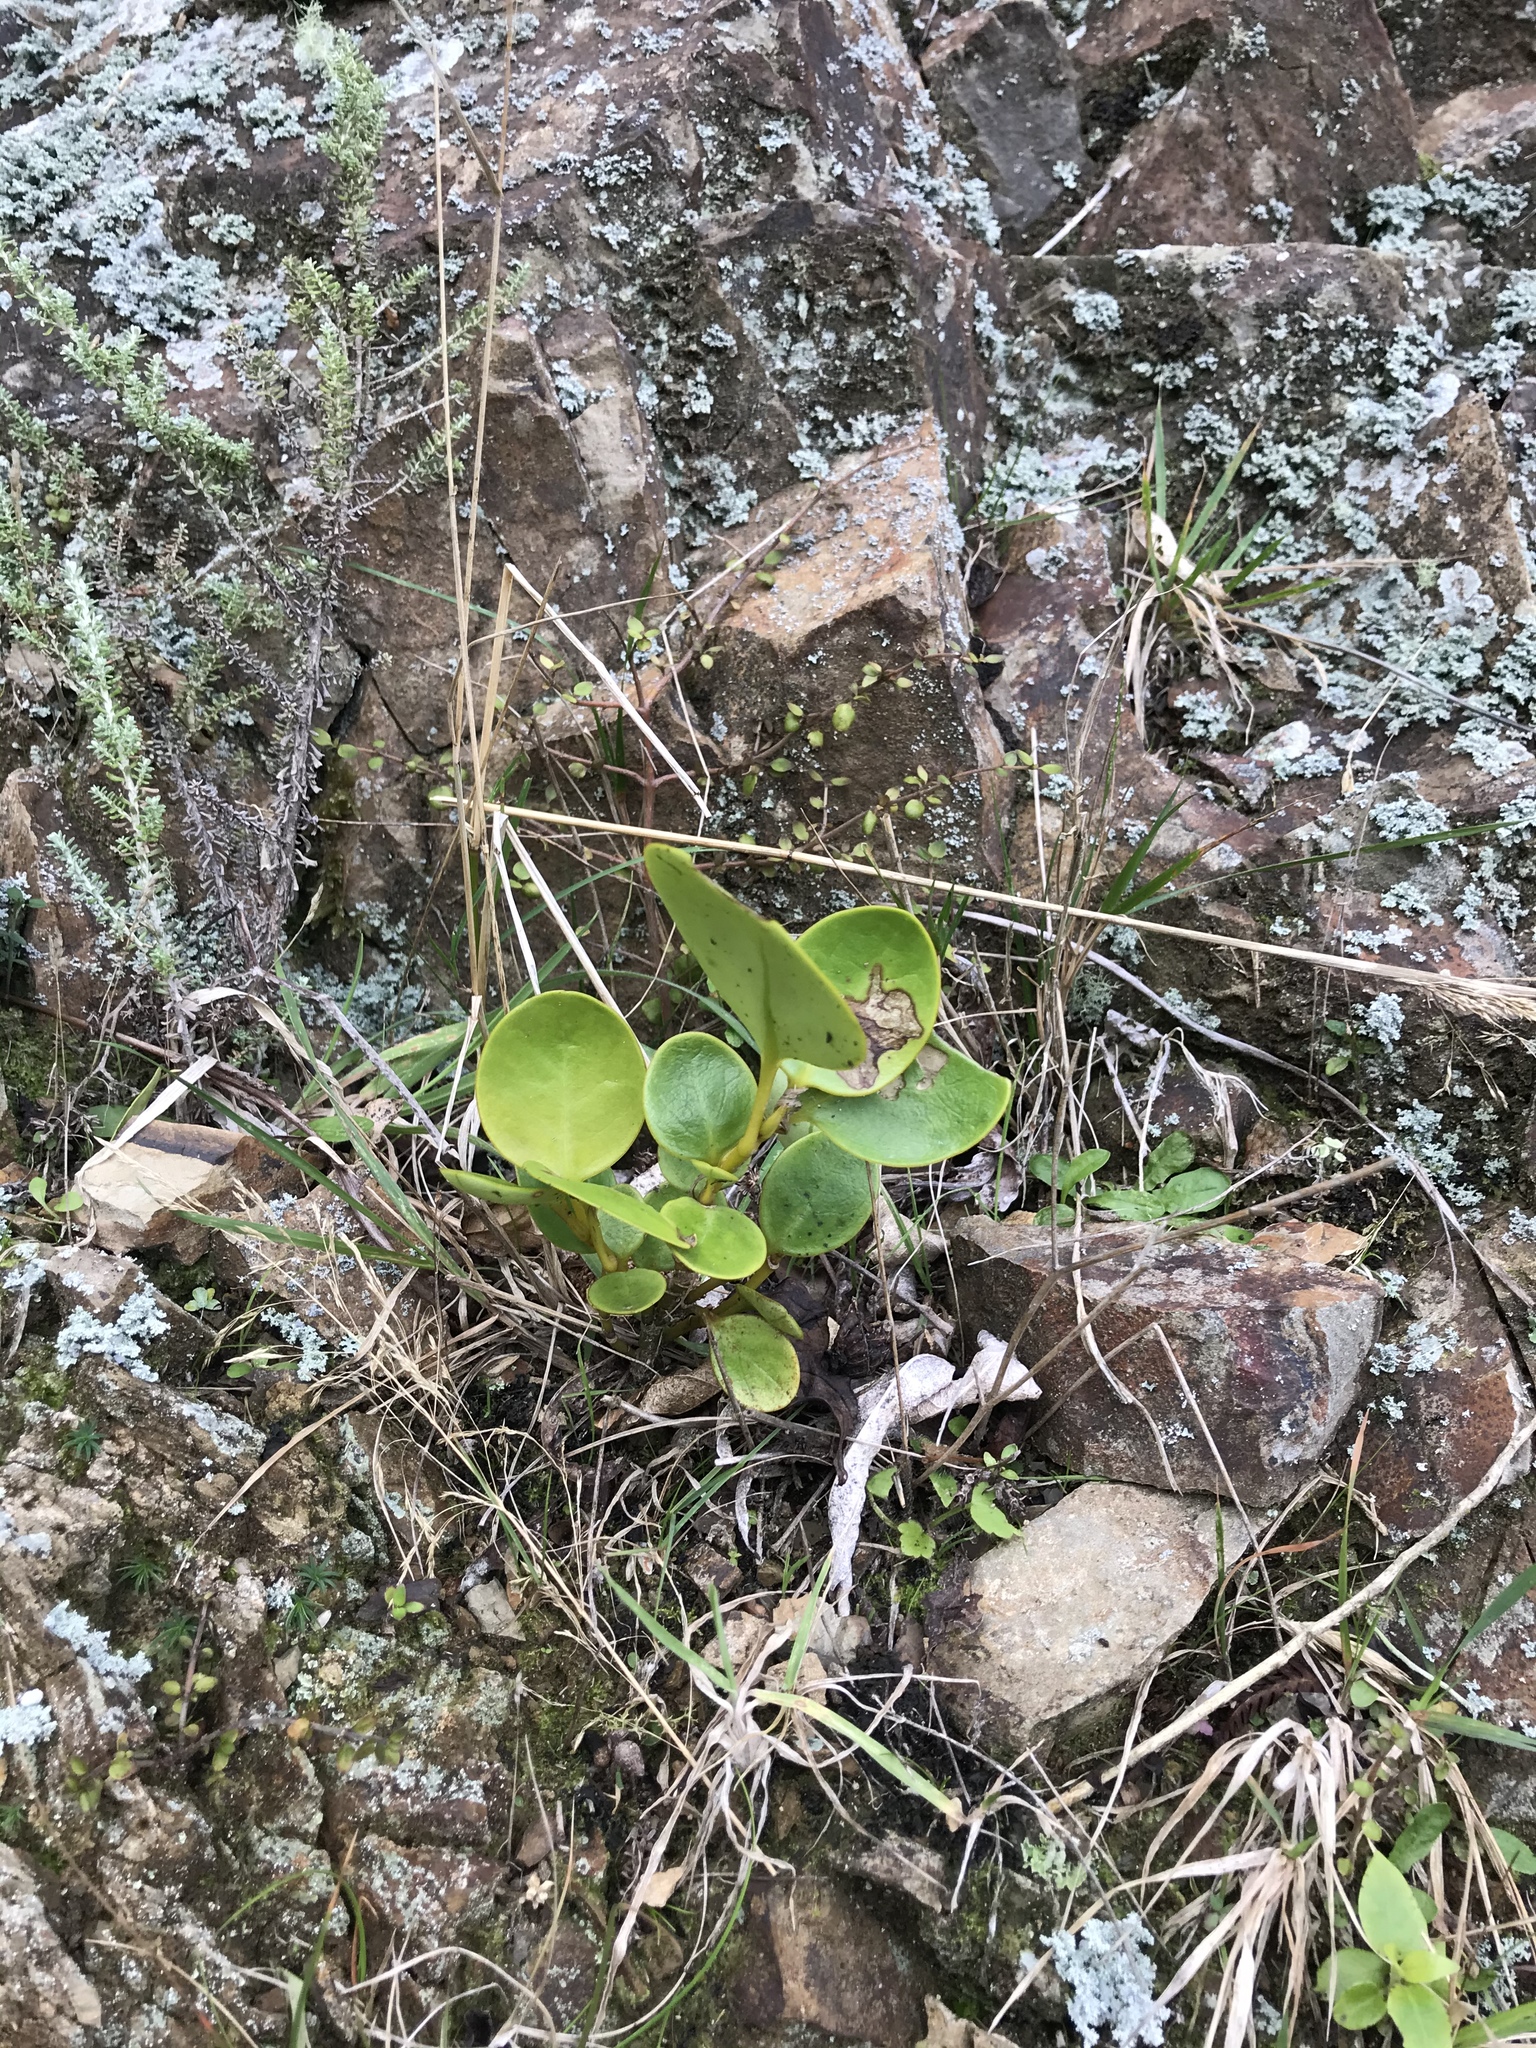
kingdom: Plantae
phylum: Tracheophyta
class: Magnoliopsida
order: Apiales
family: Griseliniaceae
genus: Griselinia
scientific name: Griselinia littoralis
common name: New zealand broadleaf
